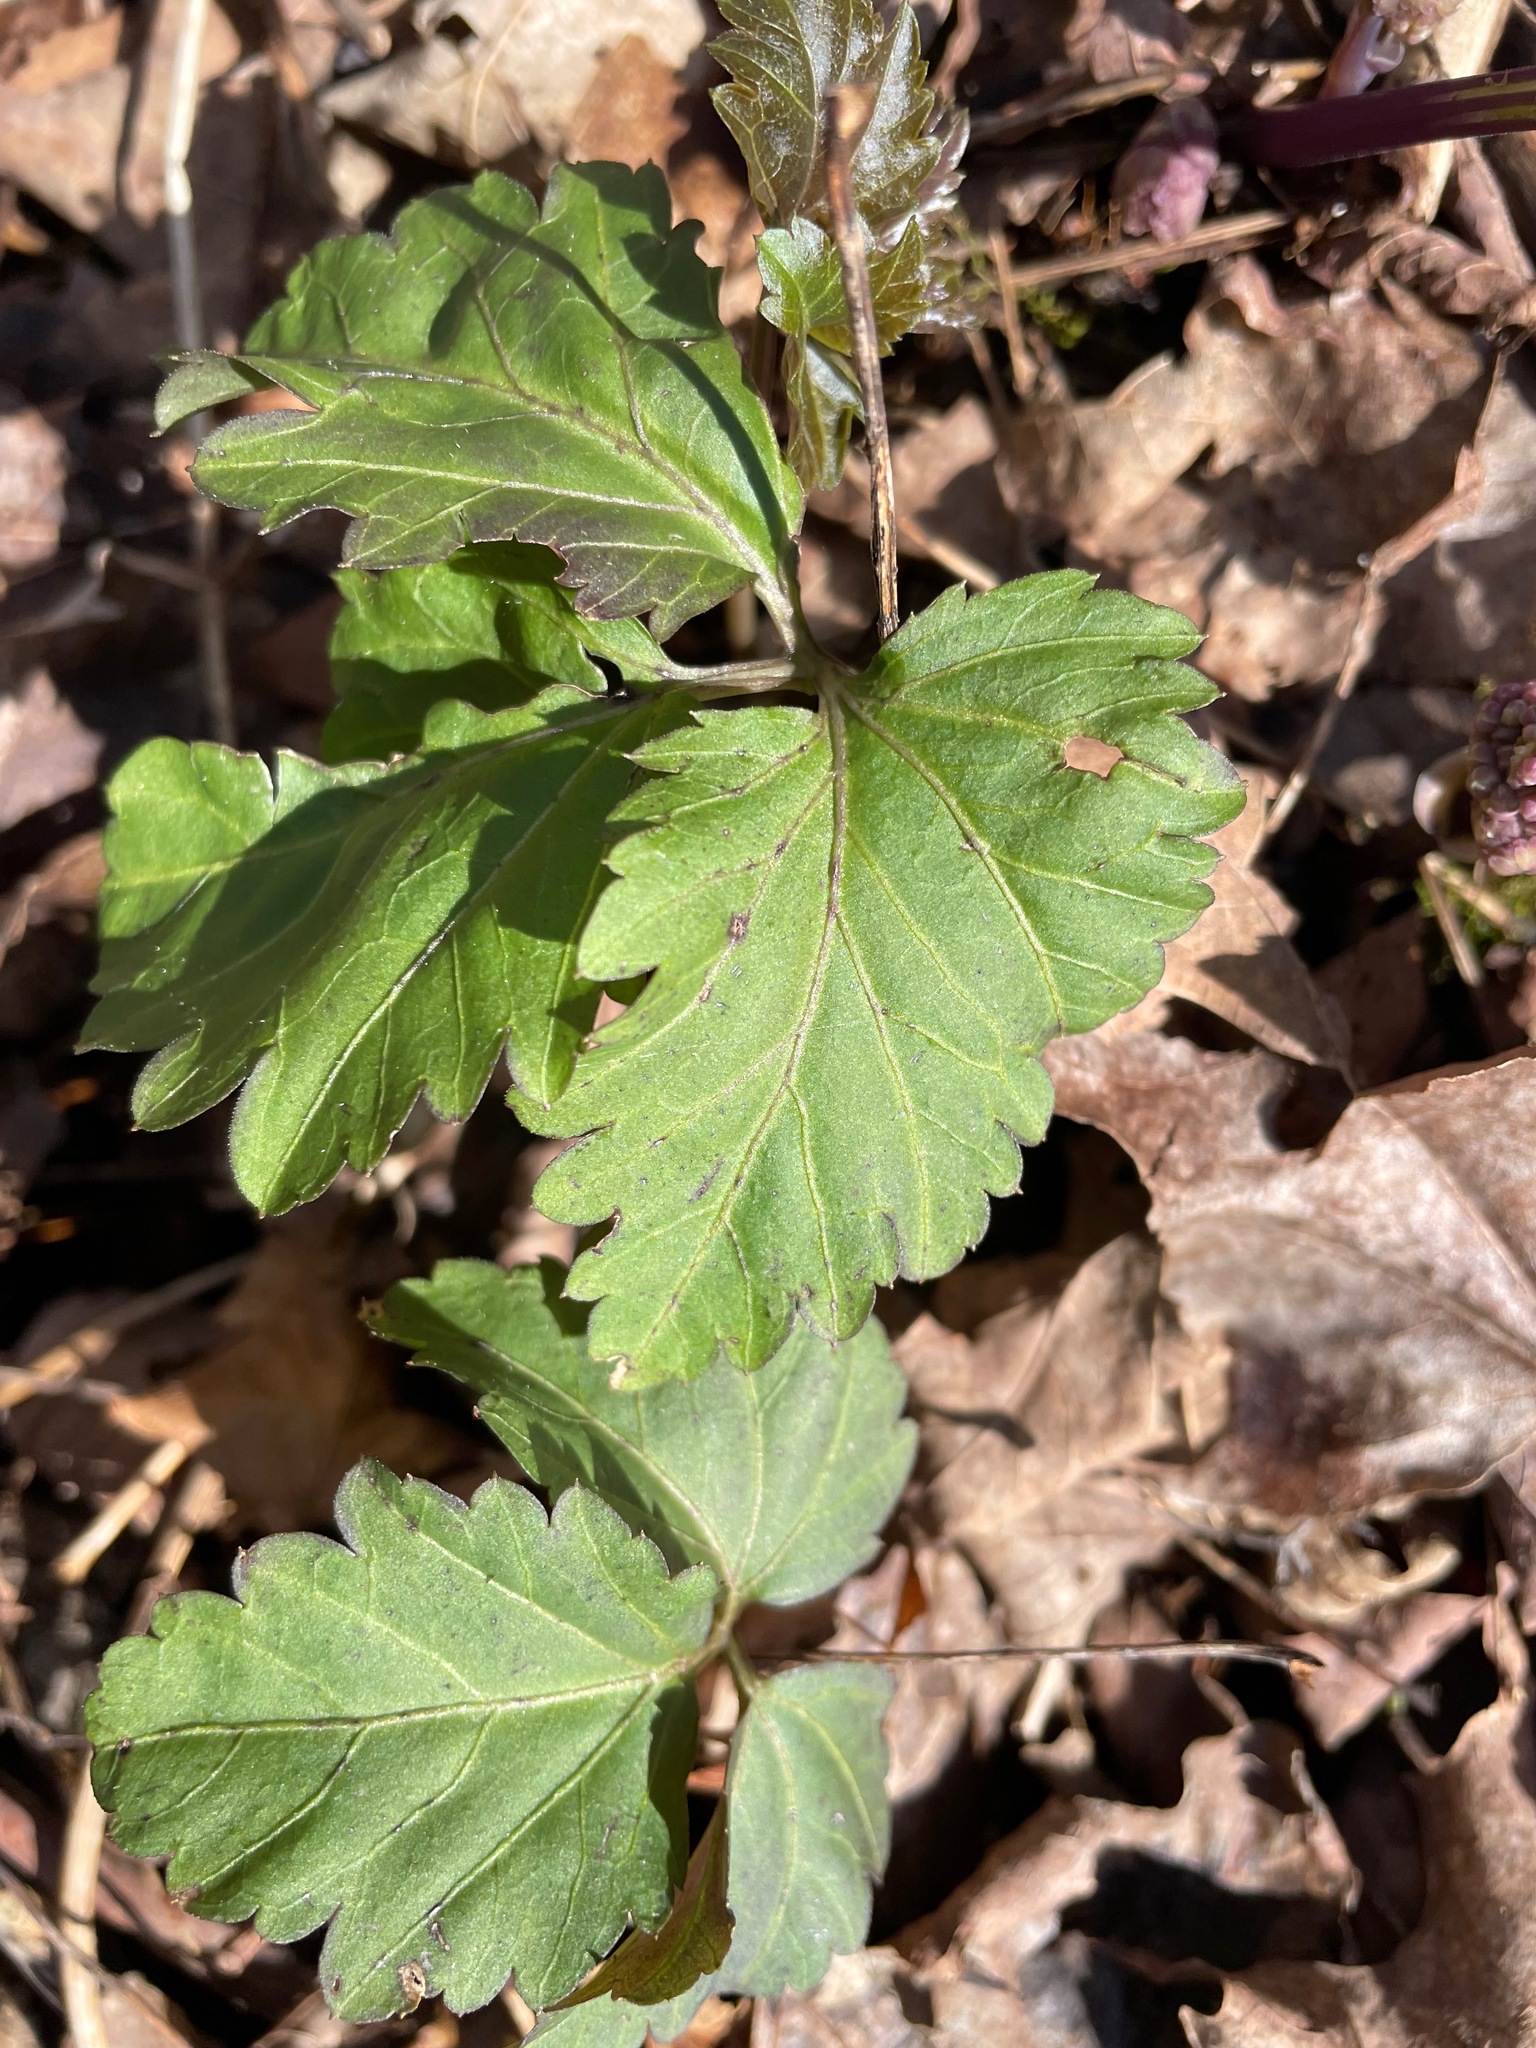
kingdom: Plantae
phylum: Tracheophyta
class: Magnoliopsida
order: Brassicales
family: Brassicaceae
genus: Cardamine
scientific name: Cardamine diphylla
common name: Broad-leaved toothwort
